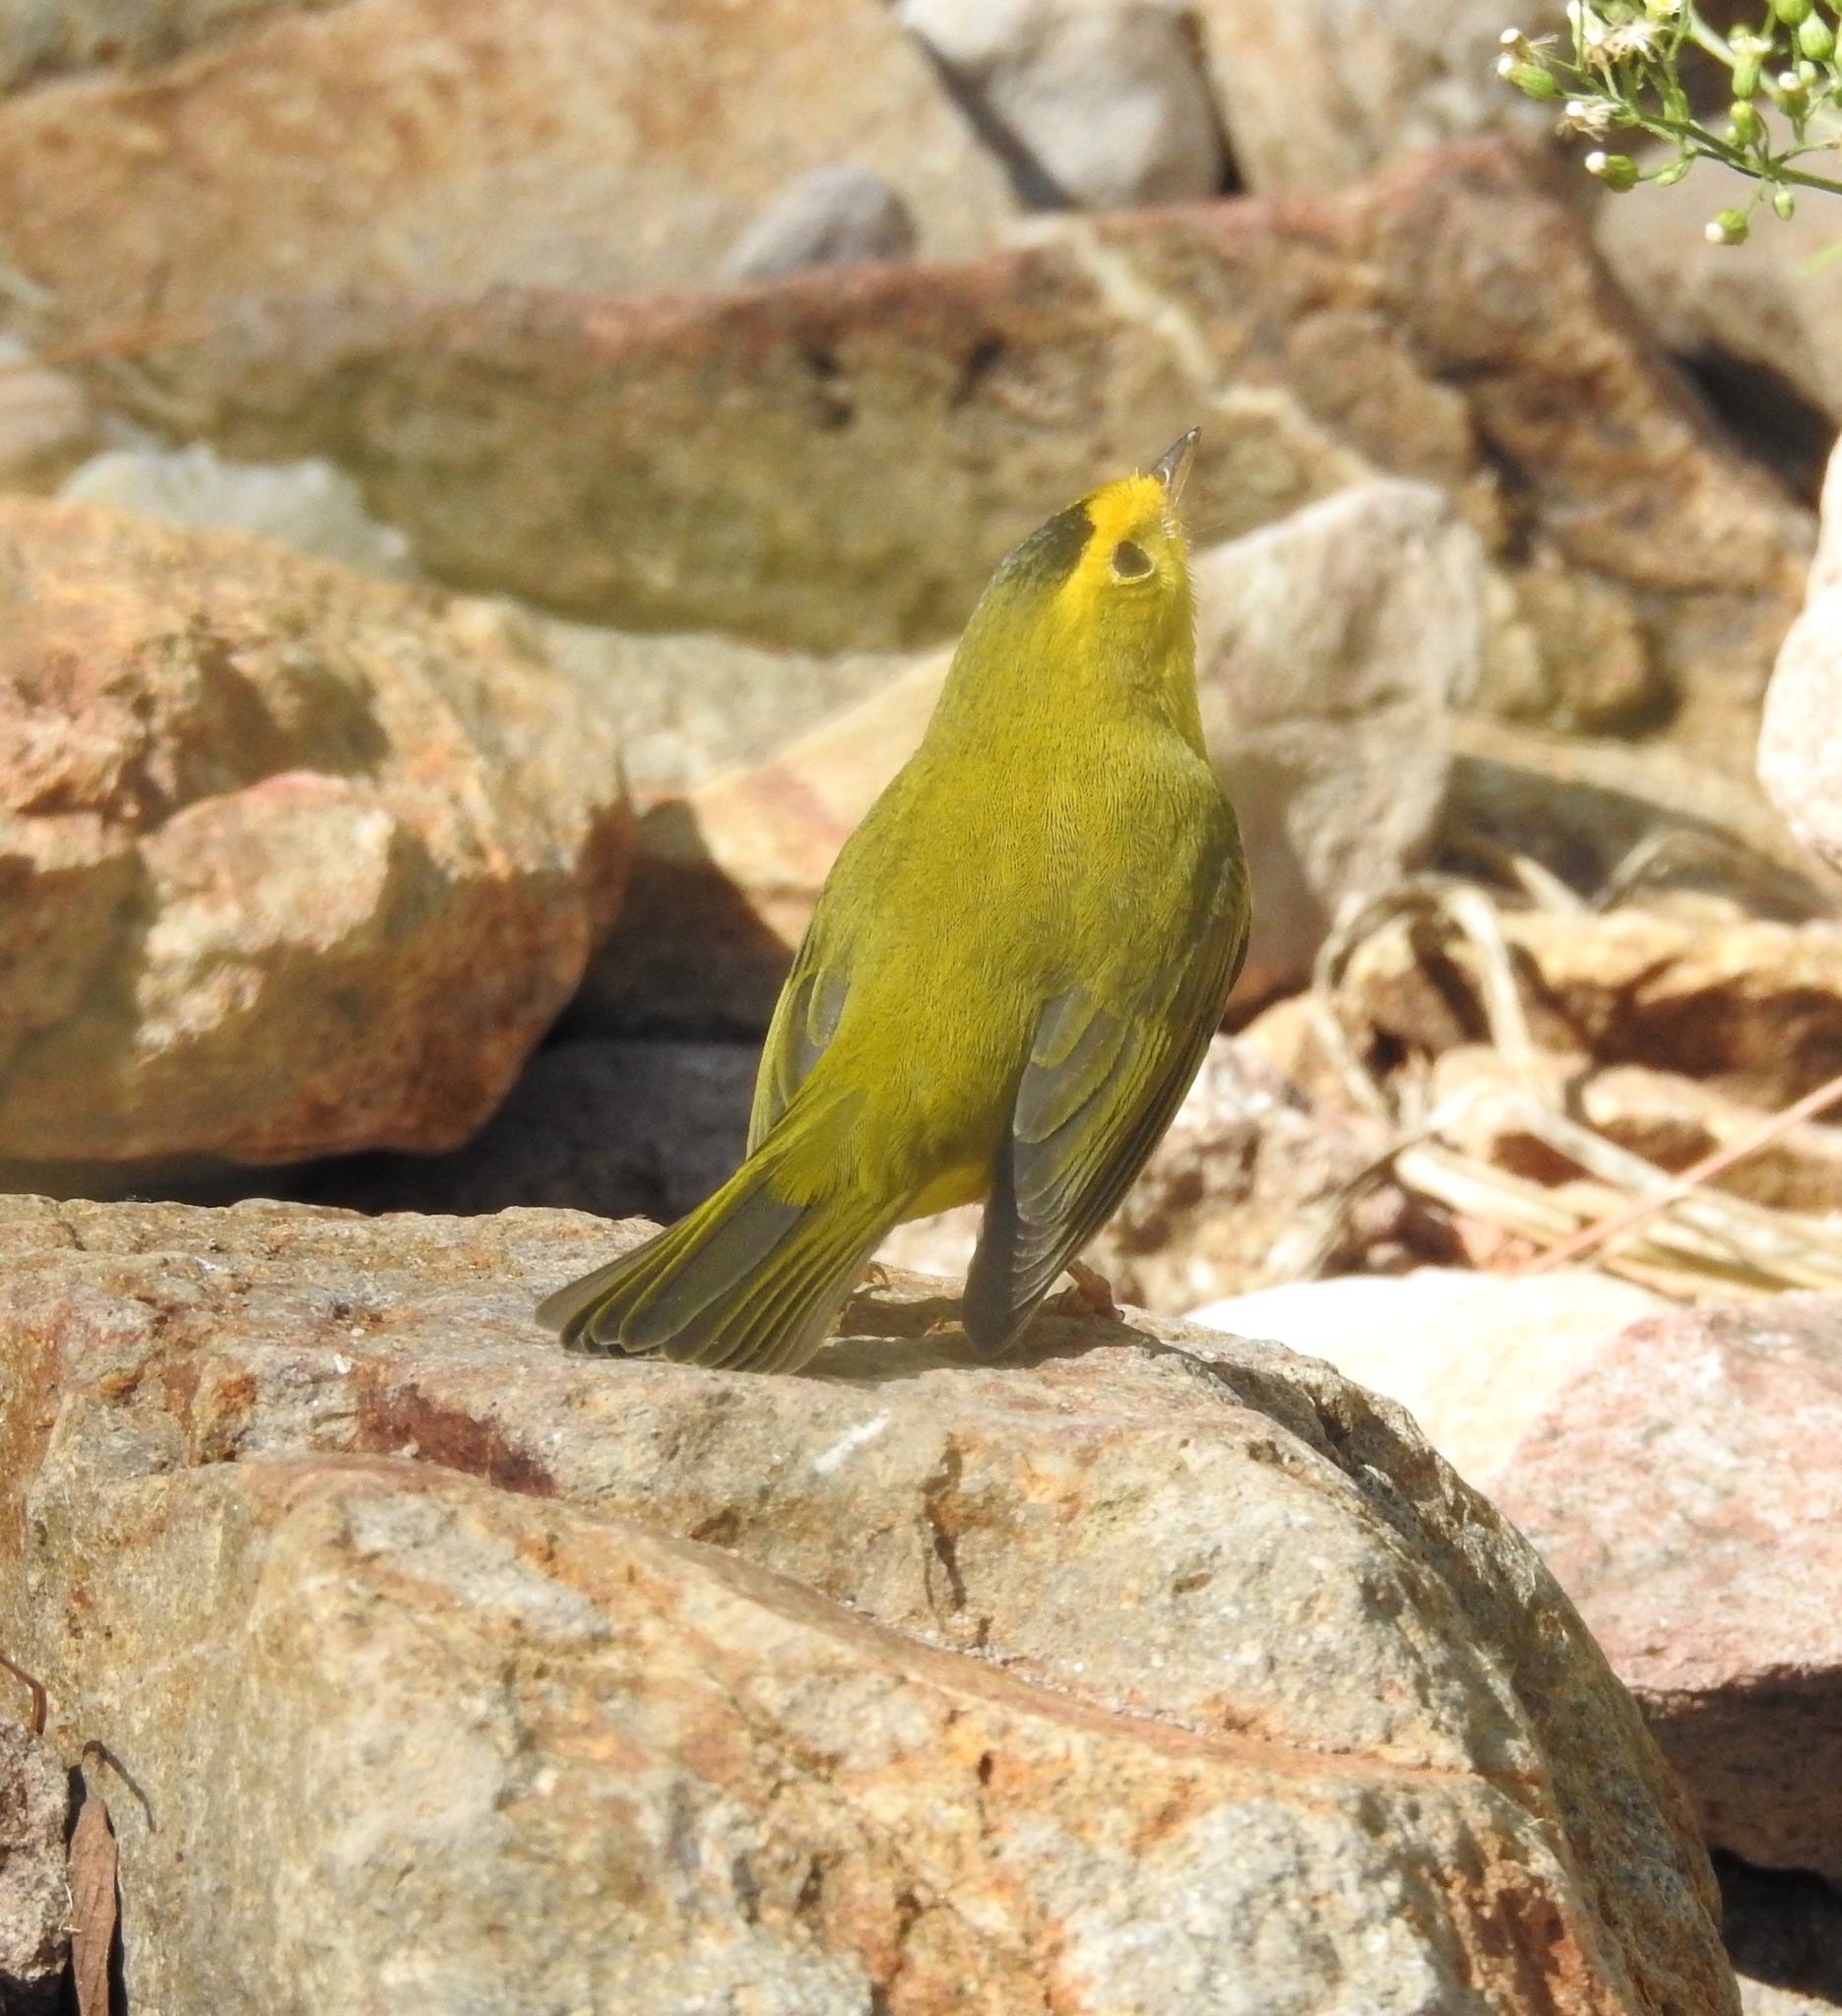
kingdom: Animalia
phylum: Chordata
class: Aves
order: Passeriformes
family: Parulidae
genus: Cardellina
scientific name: Cardellina pusilla
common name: Wilson's warbler
